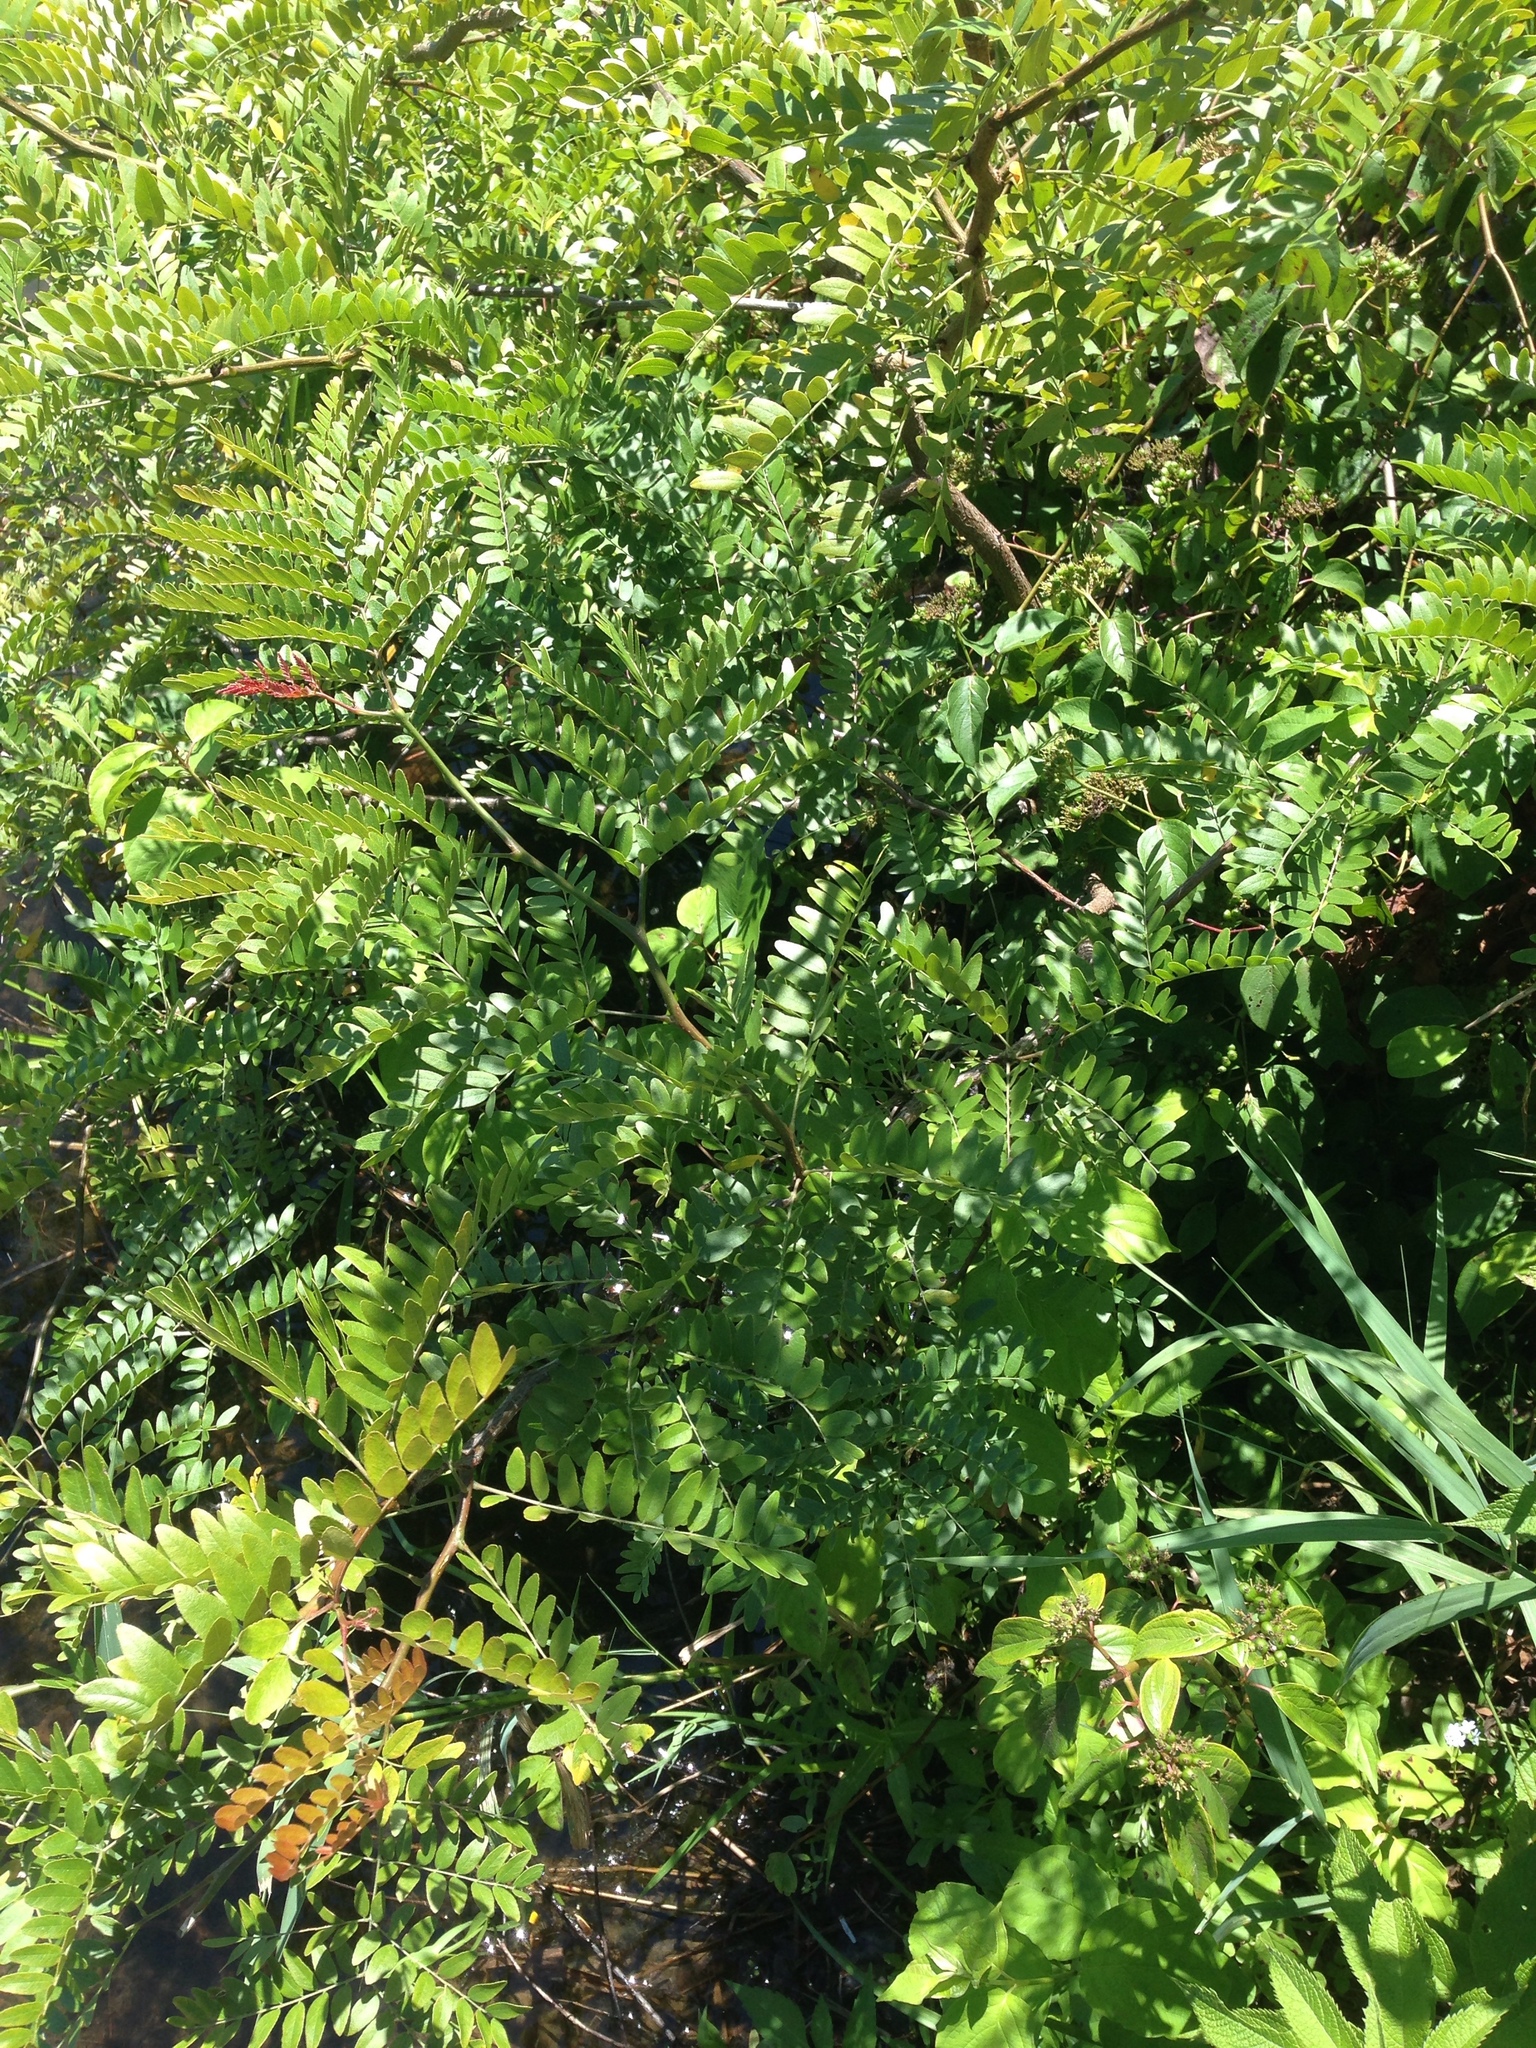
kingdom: Plantae
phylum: Tracheophyta
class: Magnoliopsida
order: Fabales
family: Fabaceae
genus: Gleditsia
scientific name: Gleditsia triacanthos
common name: Common honeylocust
